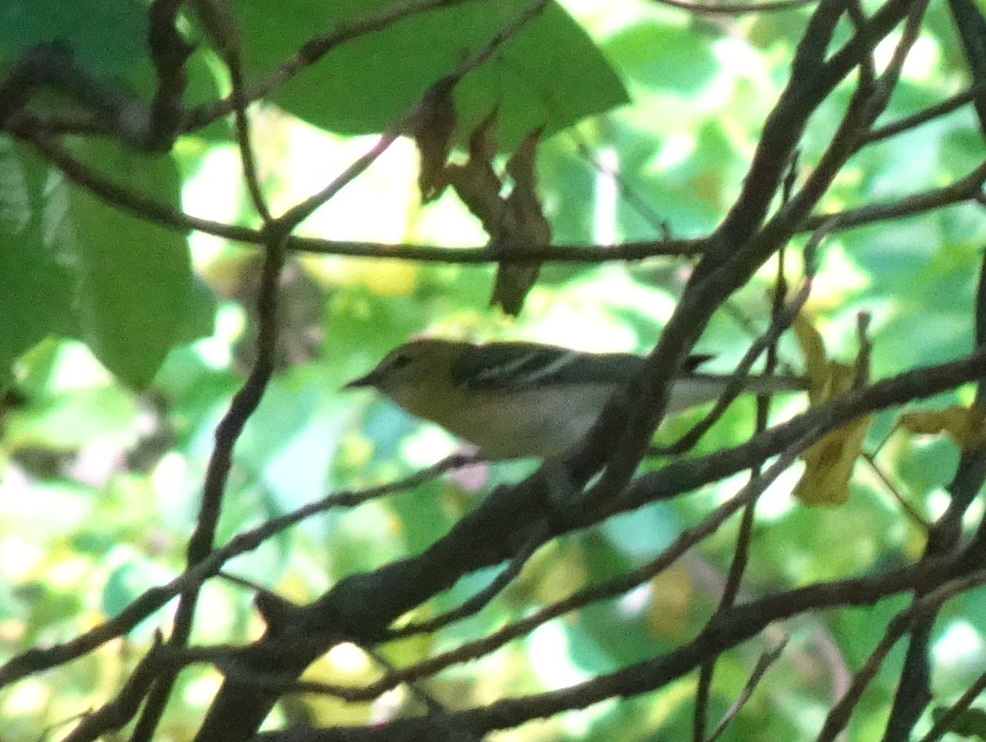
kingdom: Animalia
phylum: Chordata
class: Aves
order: Passeriformes
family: Parulidae
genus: Setophaga
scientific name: Setophaga castanea
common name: Bay-breasted warbler
